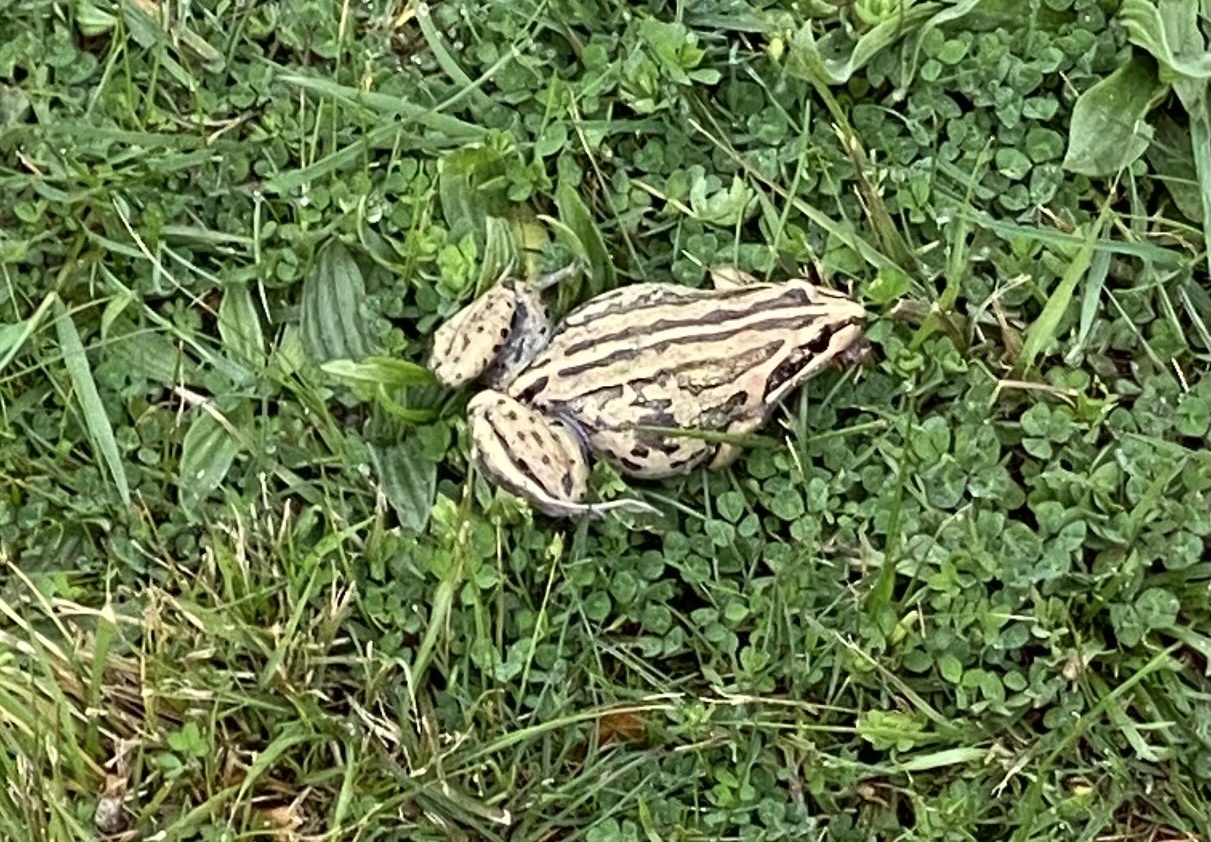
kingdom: Animalia
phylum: Chordata
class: Amphibia
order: Anura
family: Limnodynastidae
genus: Limnodynastes
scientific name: Limnodynastes peronii
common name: Brown frog
